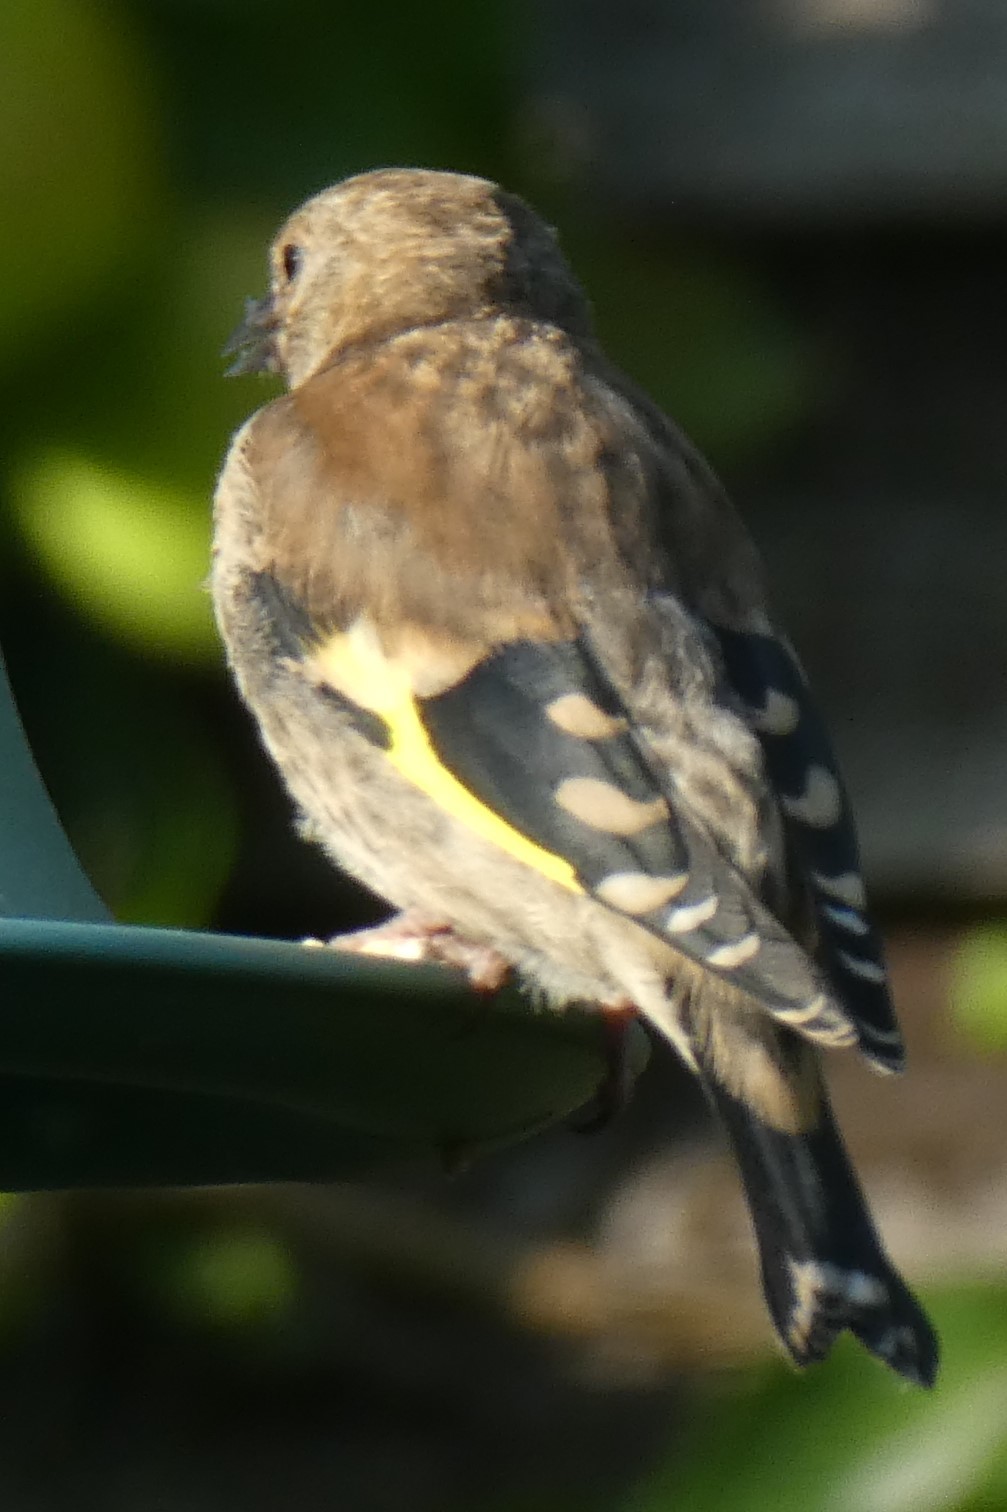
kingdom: Animalia
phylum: Chordata
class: Aves
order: Passeriformes
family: Fringillidae
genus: Carduelis
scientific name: Carduelis carduelis
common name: European goldfinch
